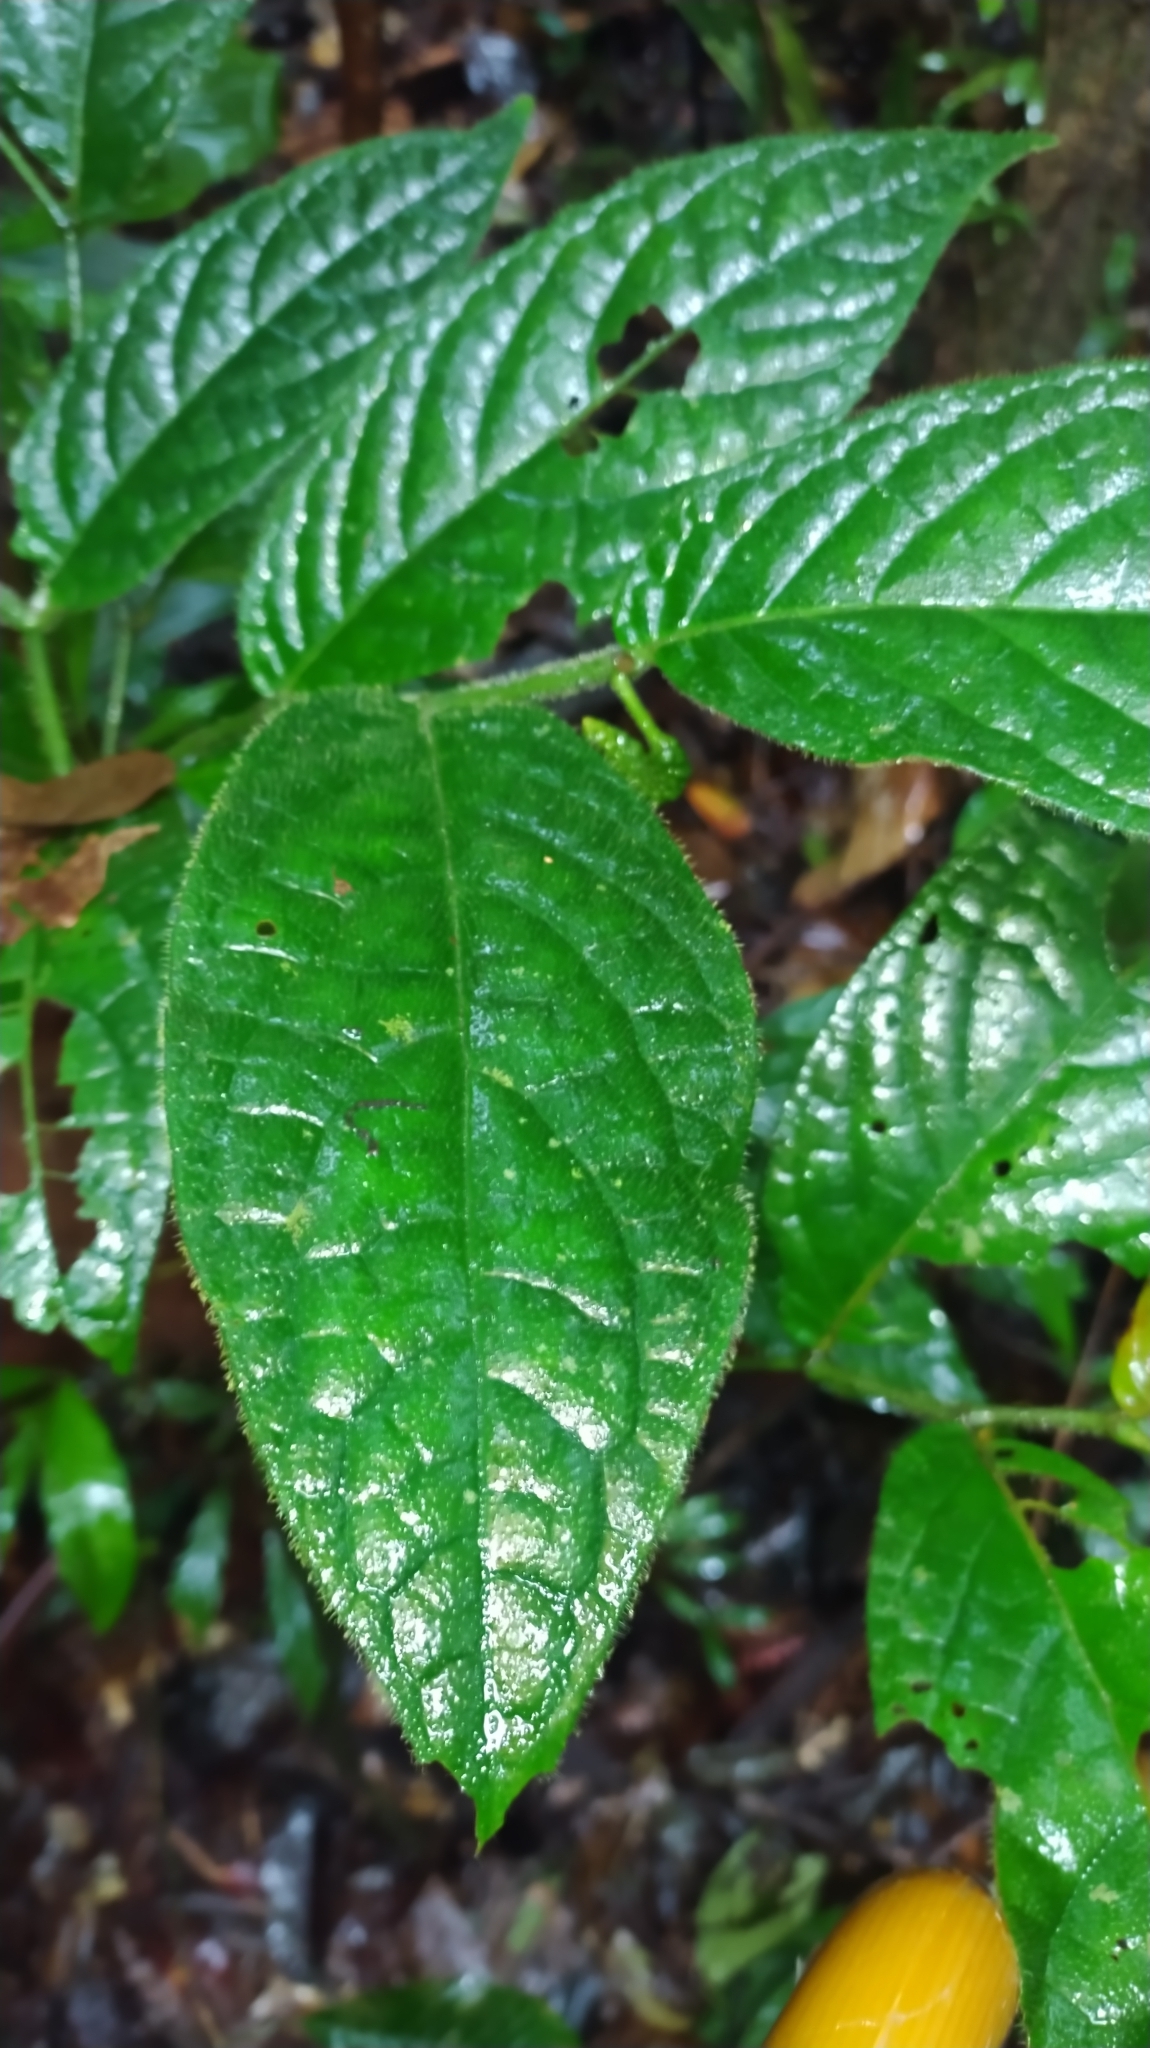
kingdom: Plantae
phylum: Tracheophyta
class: Magnoliopsida
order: Piperales
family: Piperaceae
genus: Piper
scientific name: Piper brownsbergense
